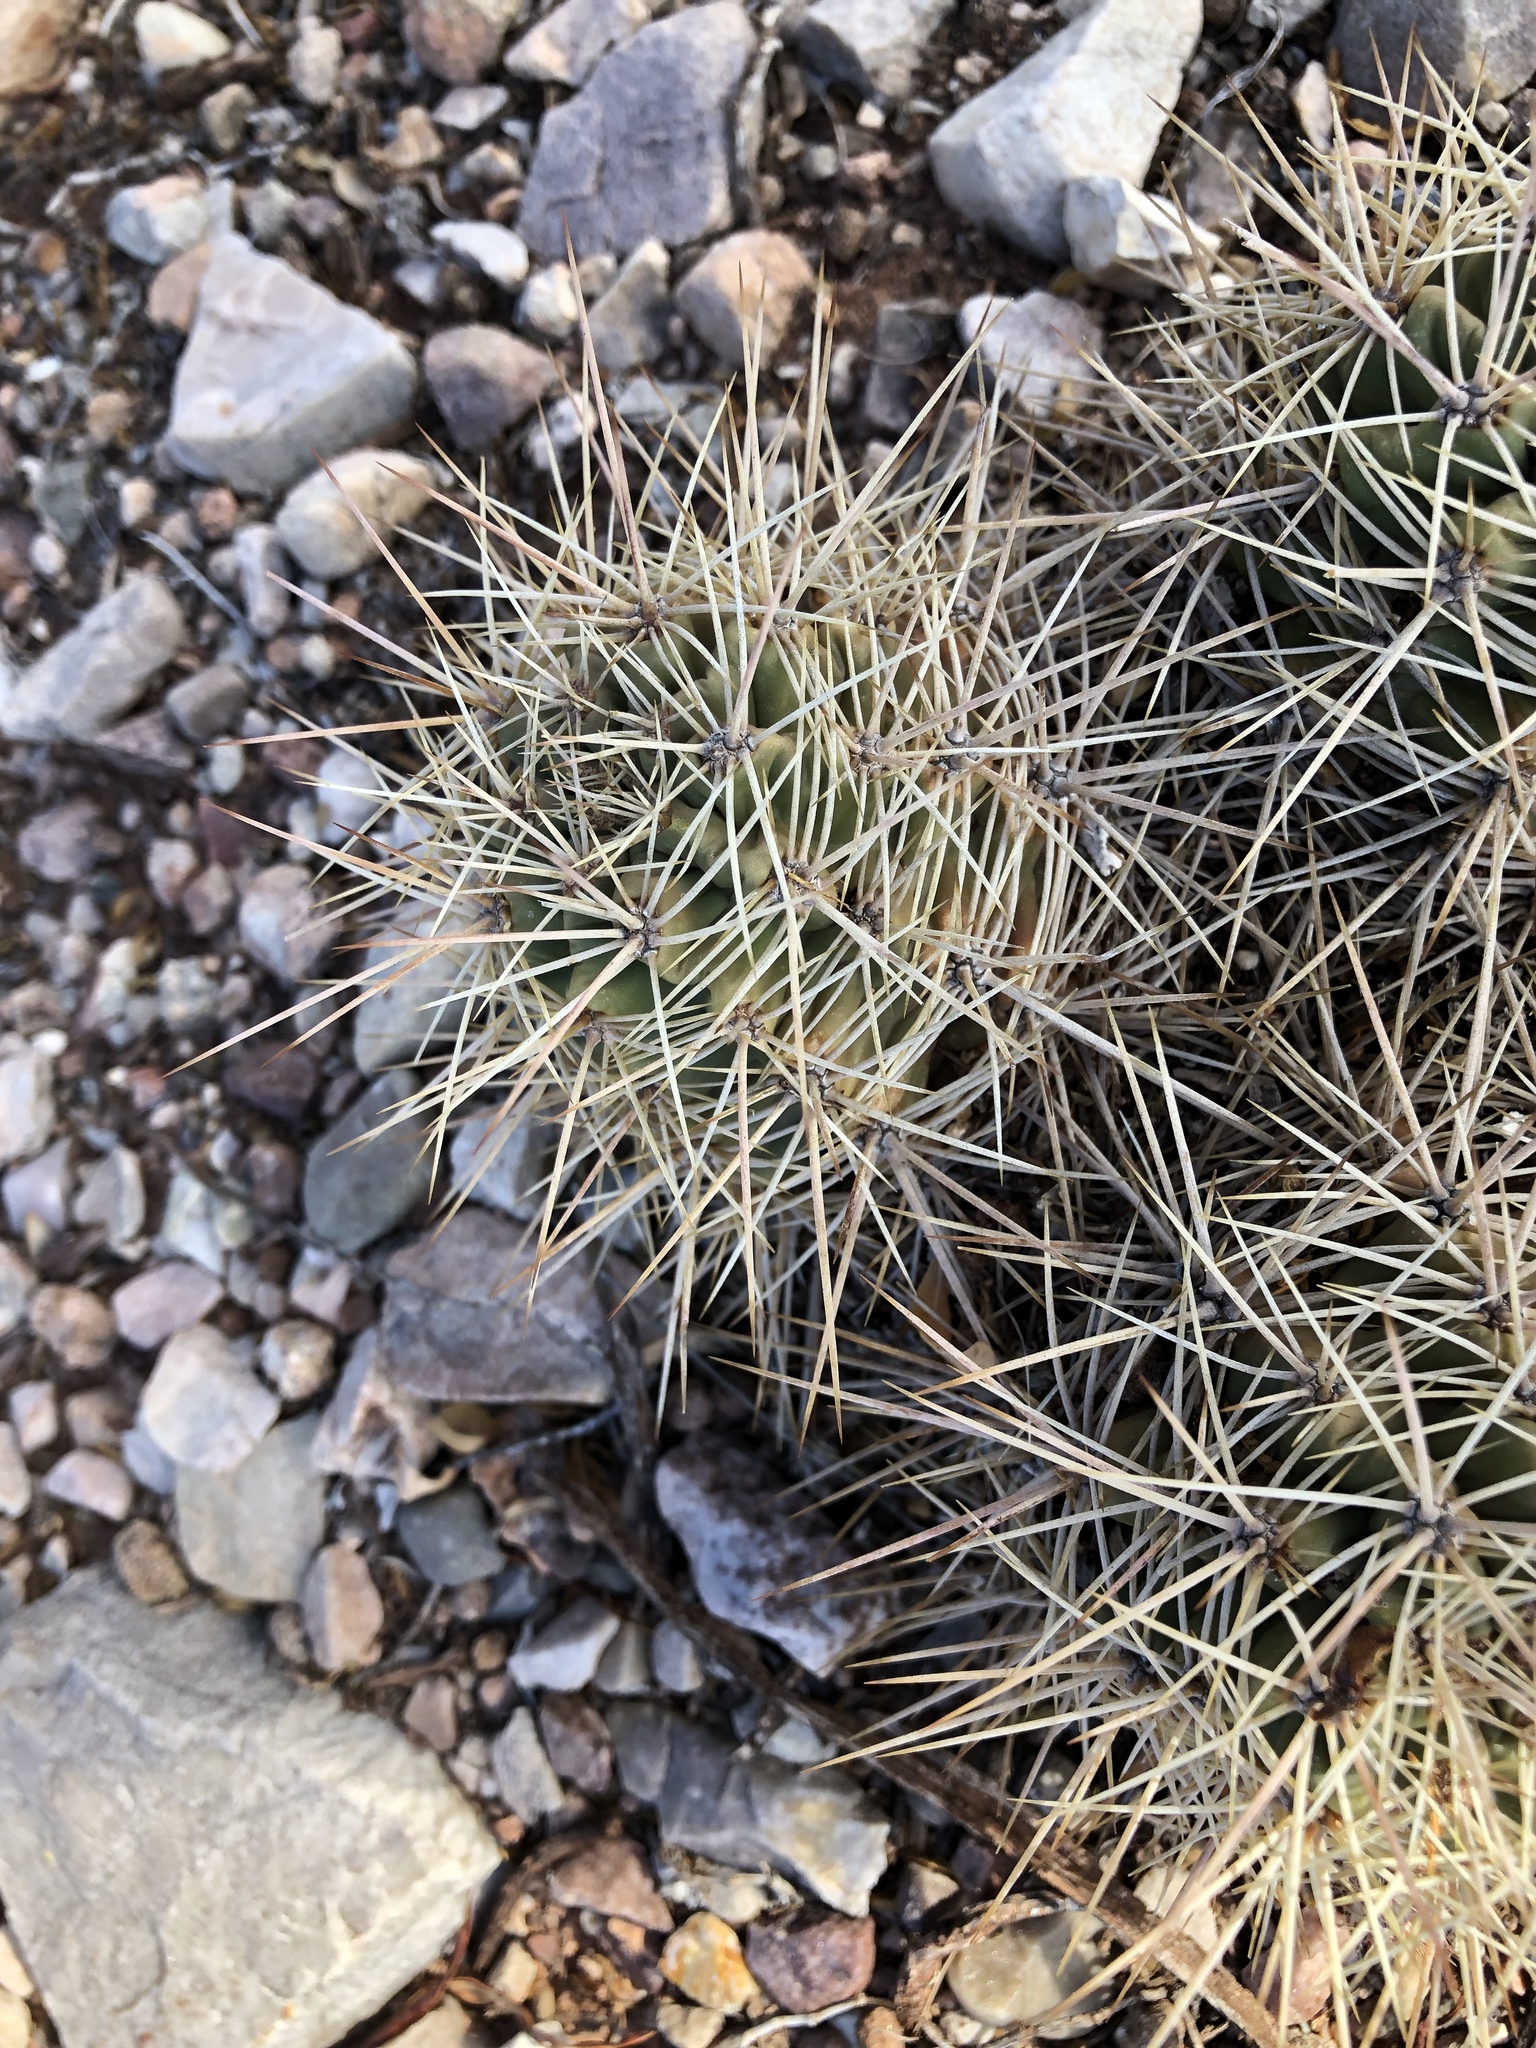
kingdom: Plantae
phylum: Tracheophyta
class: Magnoliopsida
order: Caryophyllales
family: Cactaceae
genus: Echinocereus
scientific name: Echinocereus coccineus
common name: Scarlet hedgehog cactus
